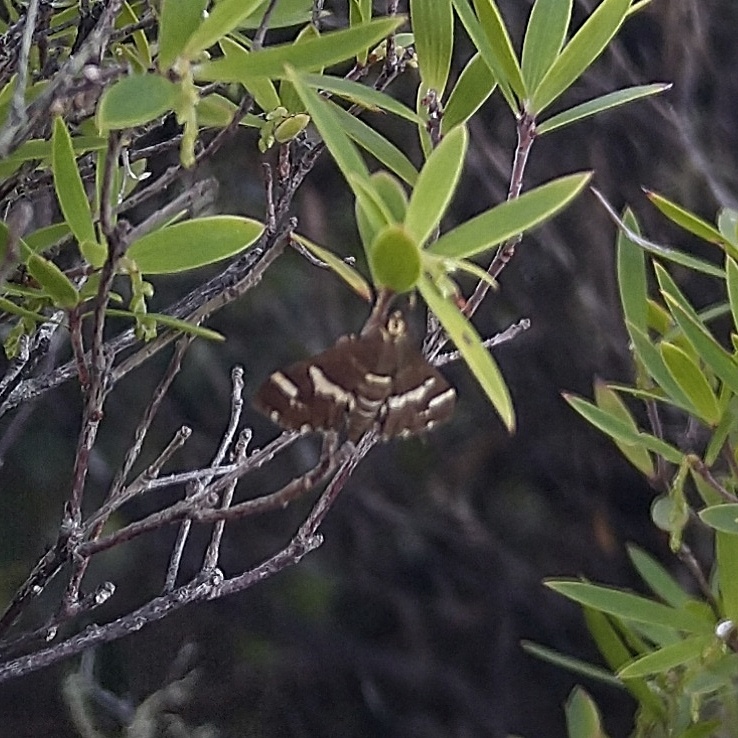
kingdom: Animalia
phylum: Arthropoda
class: Insecta
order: Lepidoptera
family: Crambidae
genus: Spoladea
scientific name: Spoladea recurvalis
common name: Beet webworm moth
